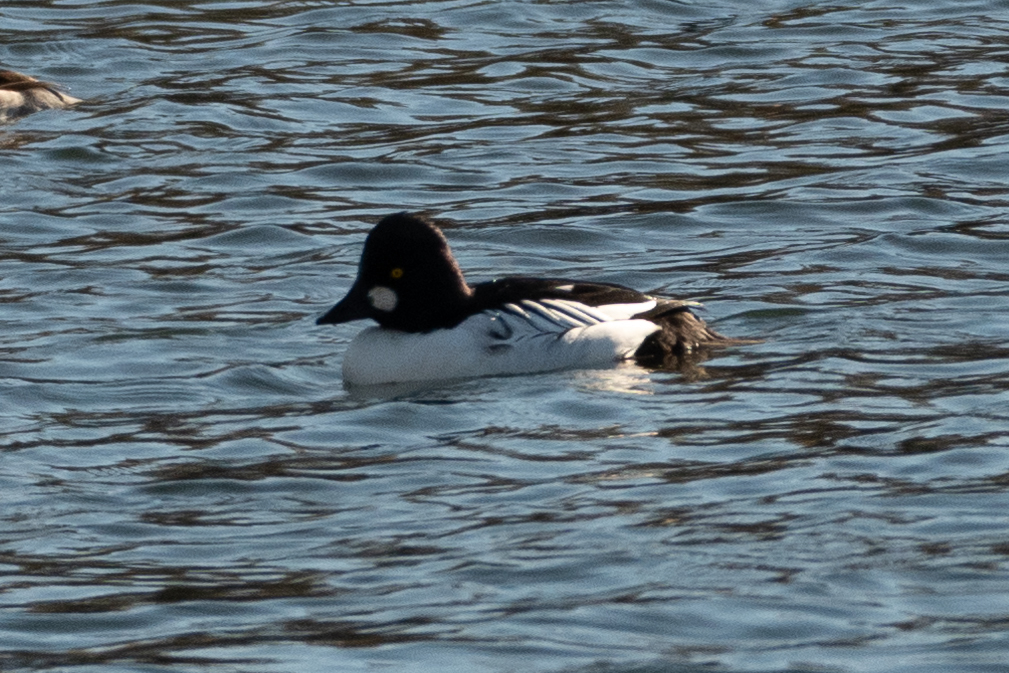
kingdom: Animalia
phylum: Chordata
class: Aves
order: Anseriformes
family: Anatidae
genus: Bucephala
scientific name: Bucephala clangula
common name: Common goldeneye
